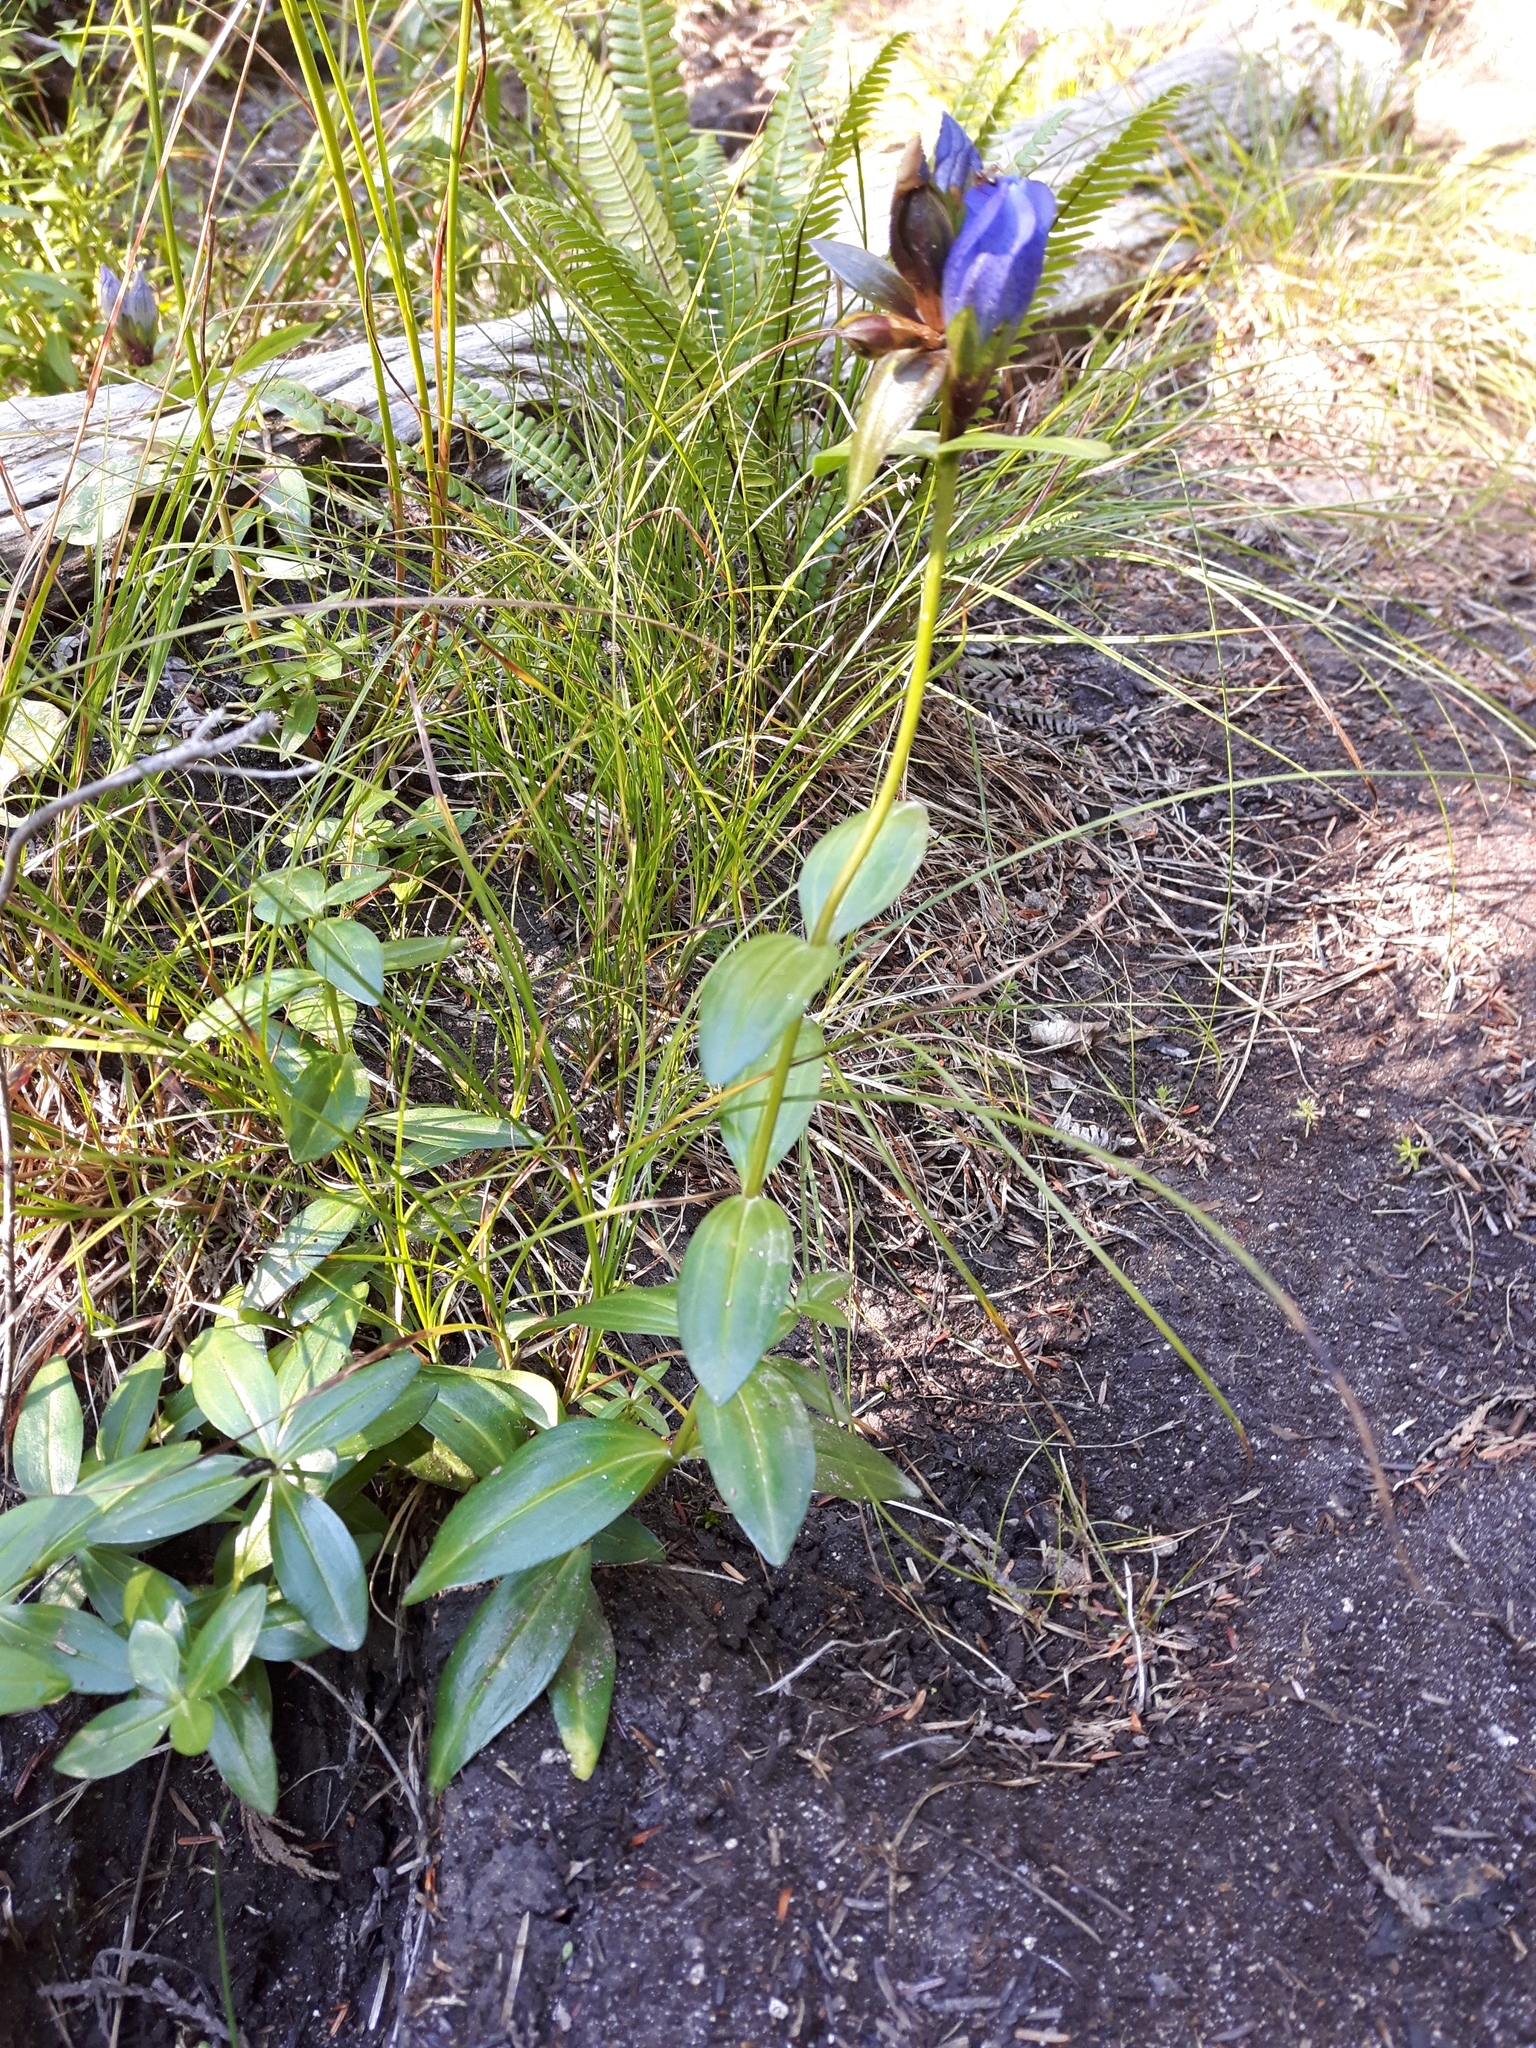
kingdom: Plantae
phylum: Tracheophyta
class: Magnoliopsida
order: Gentianales
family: Gentianaceae
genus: Gentiana
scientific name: Gentiana sceptrum
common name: Pacific gentian
